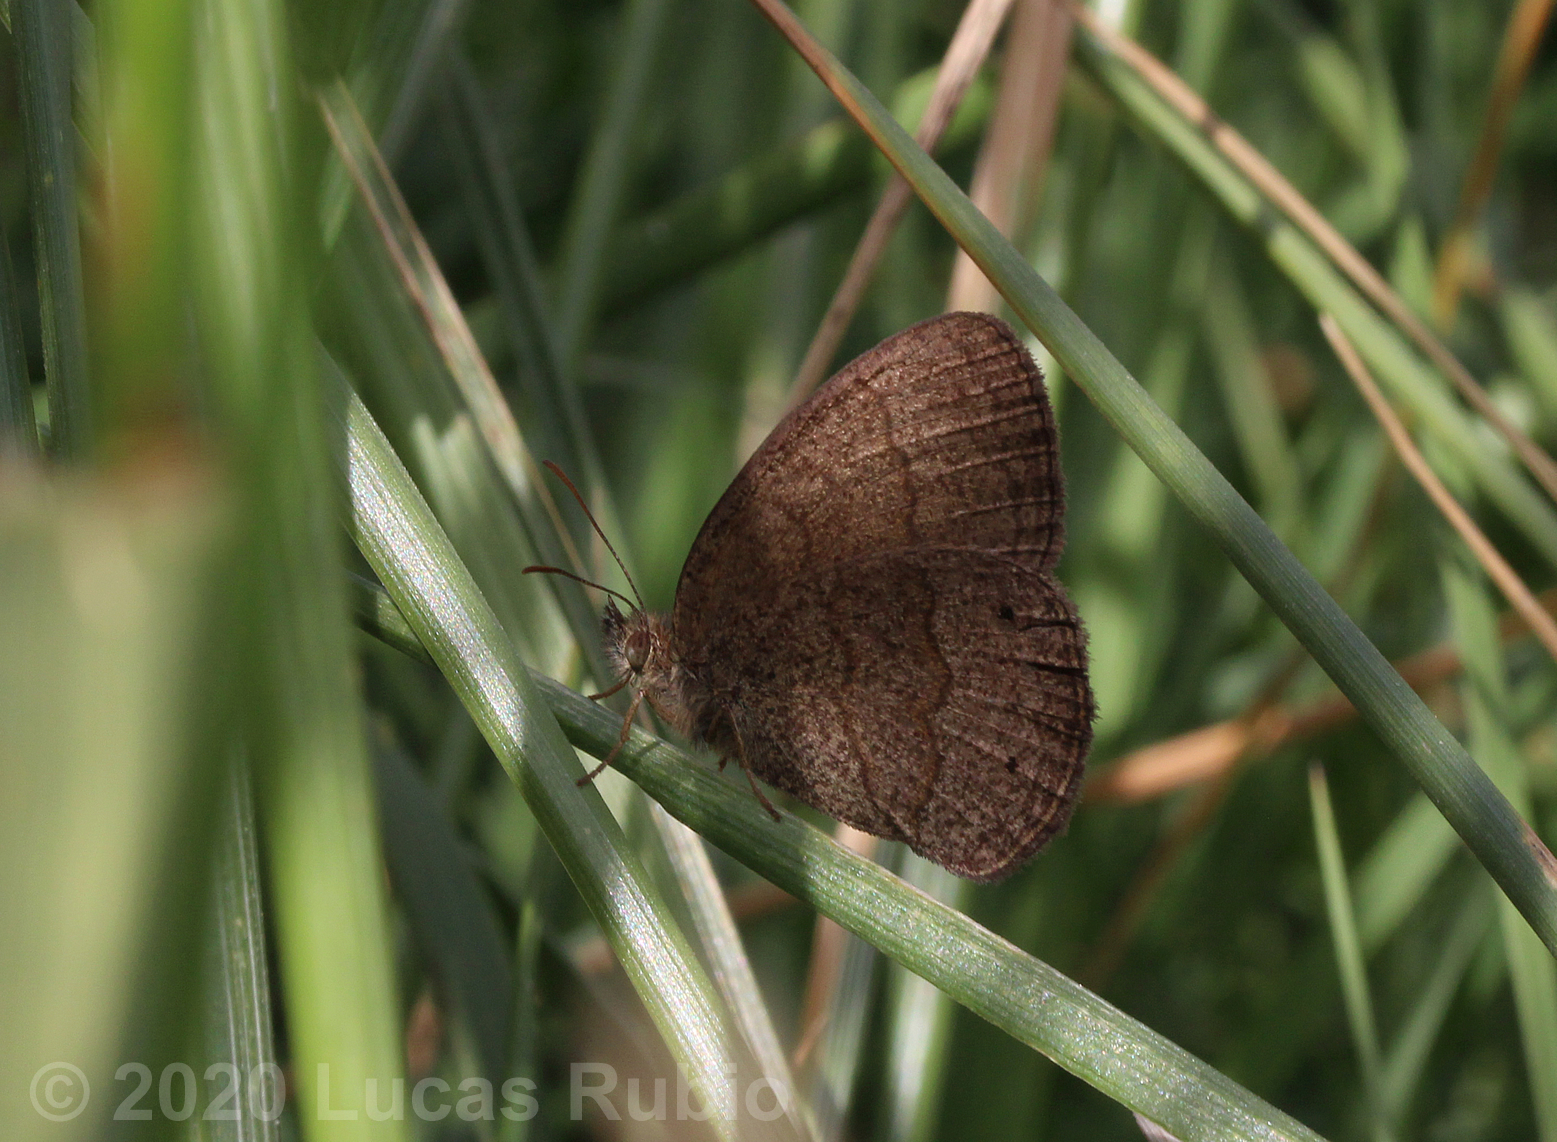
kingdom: Animalia
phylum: Arthropoda
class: Insecta
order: Lepidoptera
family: Nymphalidae
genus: Yphthimoides
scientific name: Yphthimoides celmis
